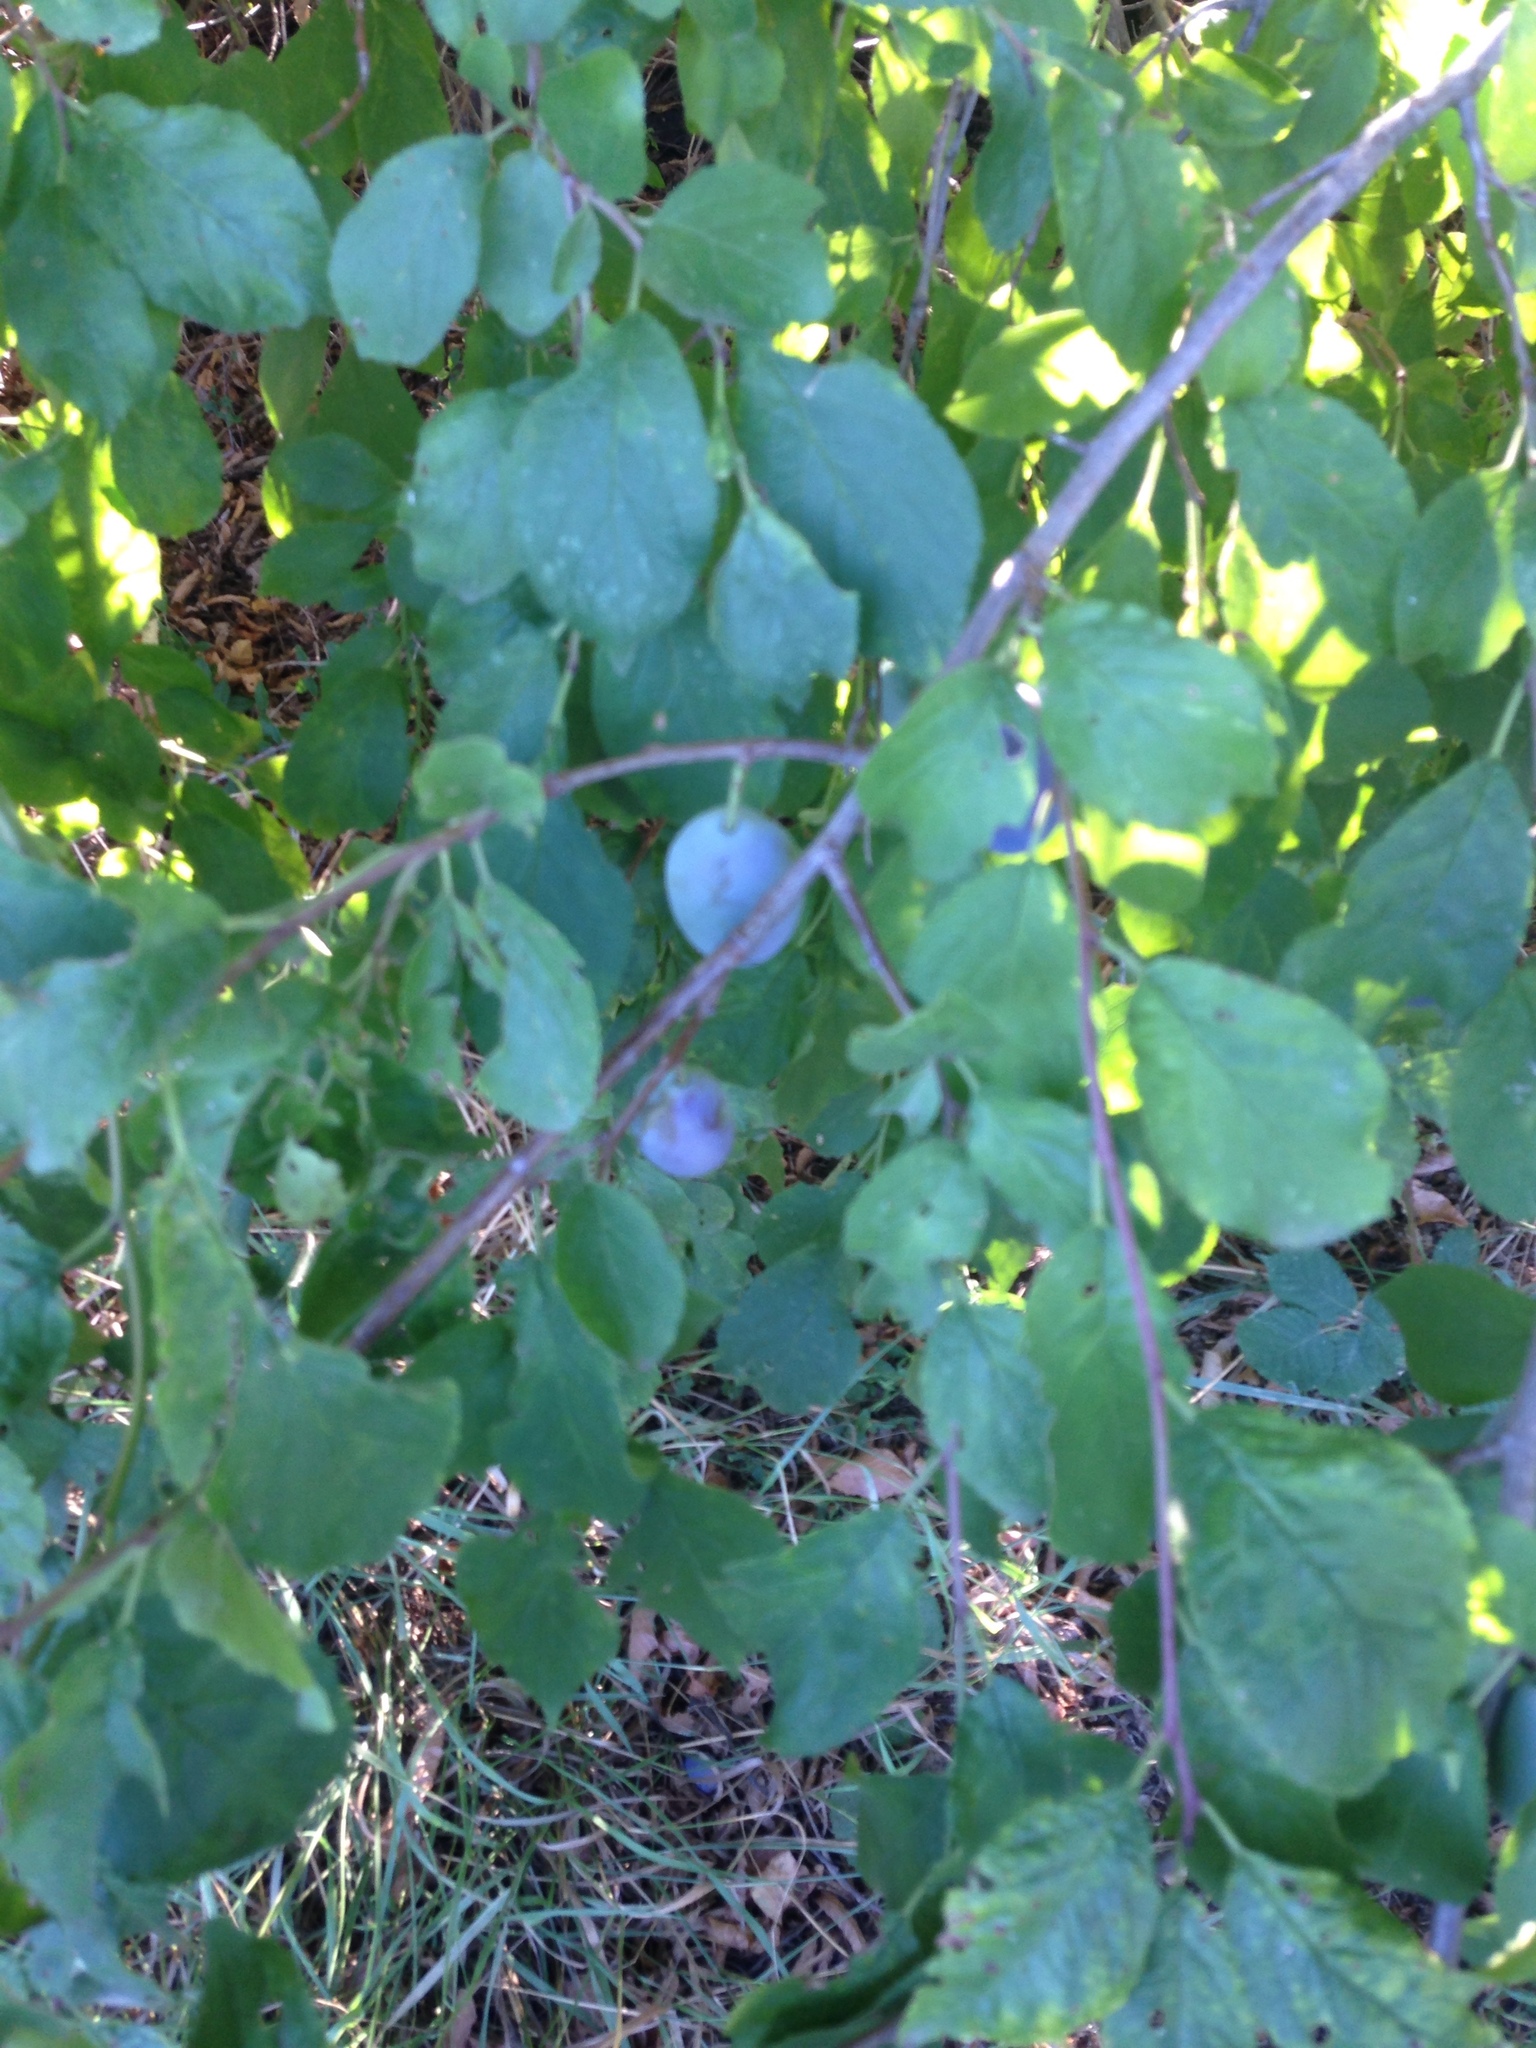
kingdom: Plantae
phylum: Tracheophyta
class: Magnoliopsida
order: Rosales
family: Rosaceae
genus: Prunus
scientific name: Prunus spinosa
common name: Blackthorn
